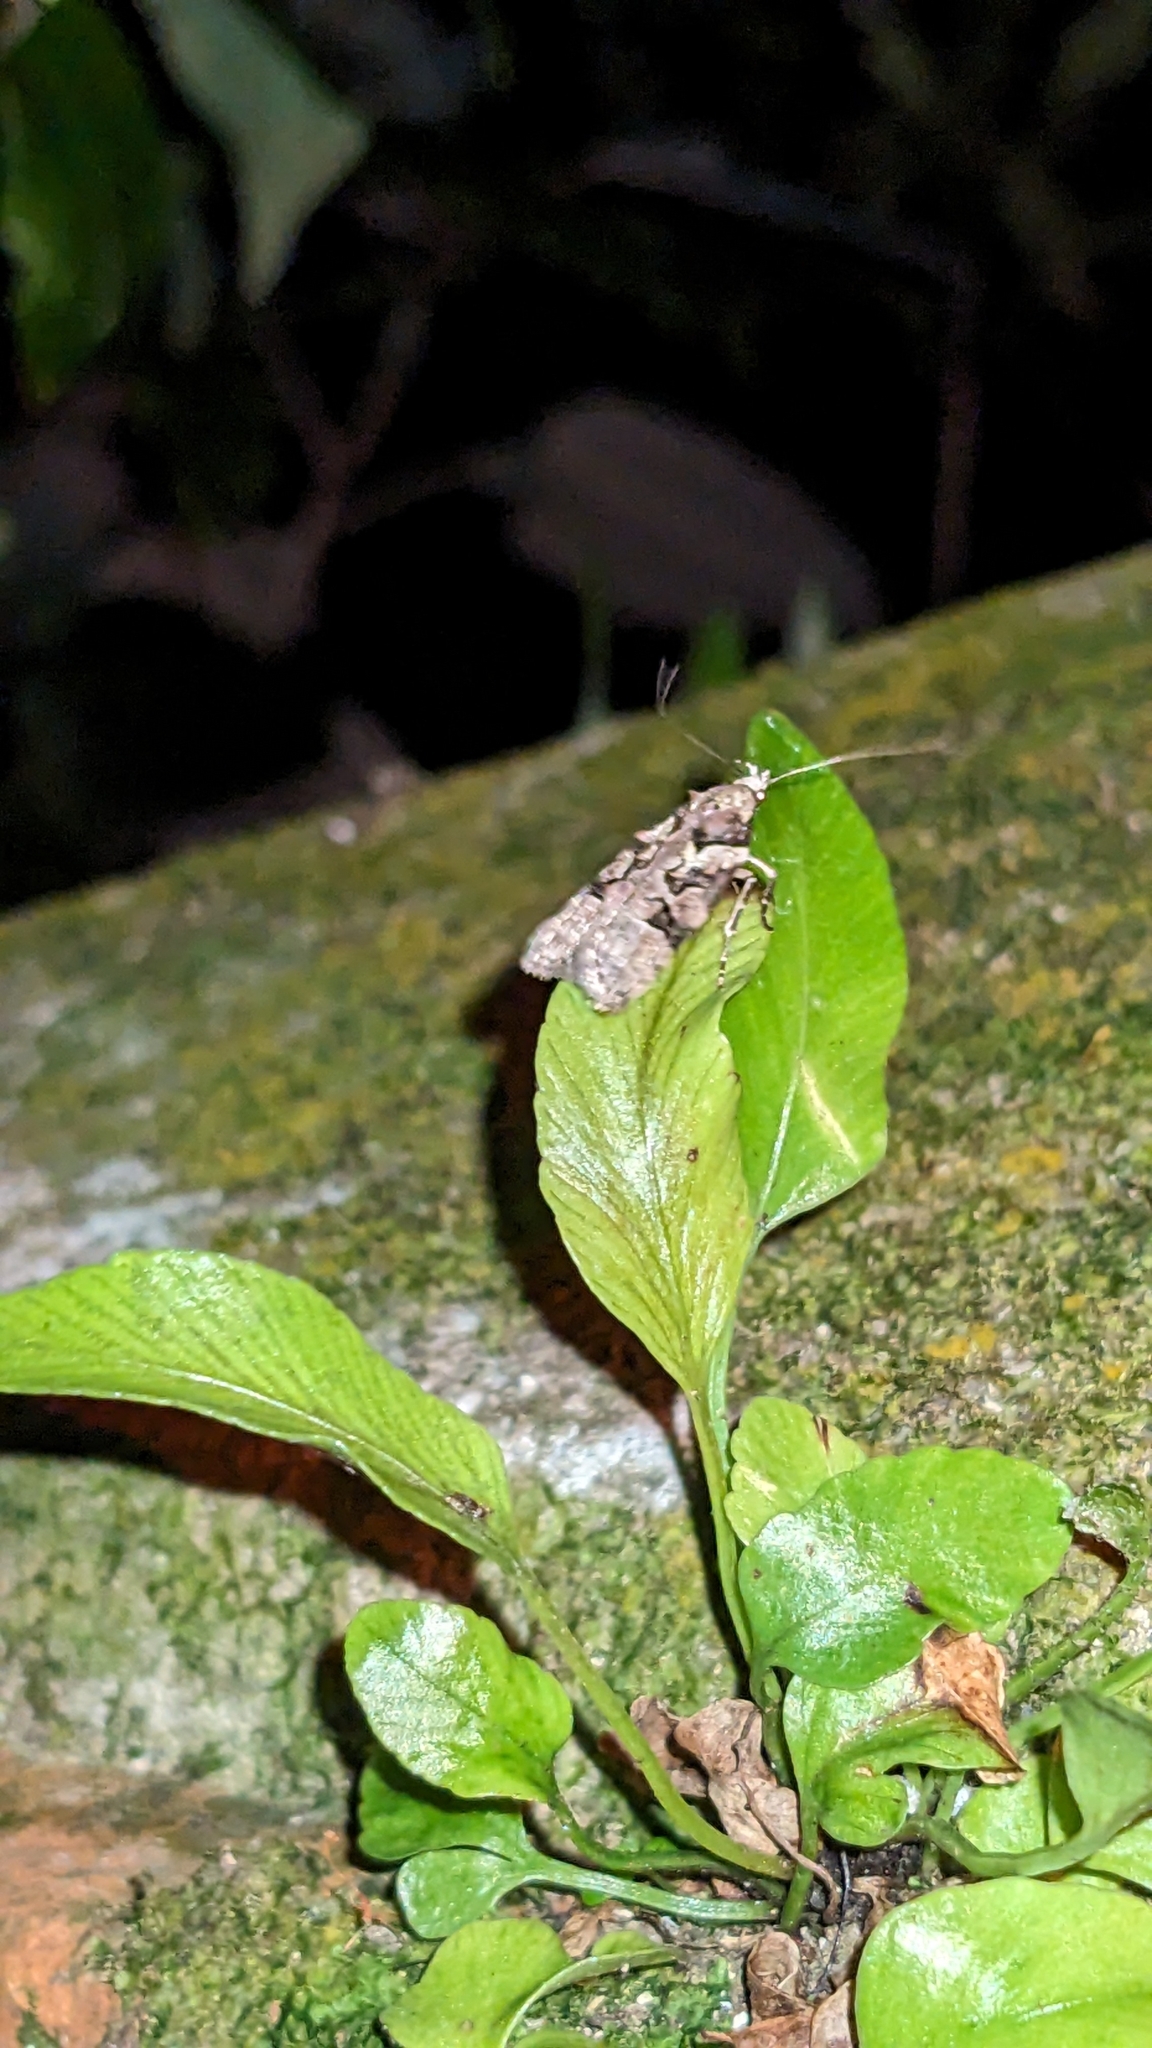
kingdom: Animalia
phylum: Arthropoda
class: Insecta
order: Lepidoptera
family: Oecophoridae
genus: Izatha
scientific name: Izatha epiphanes
